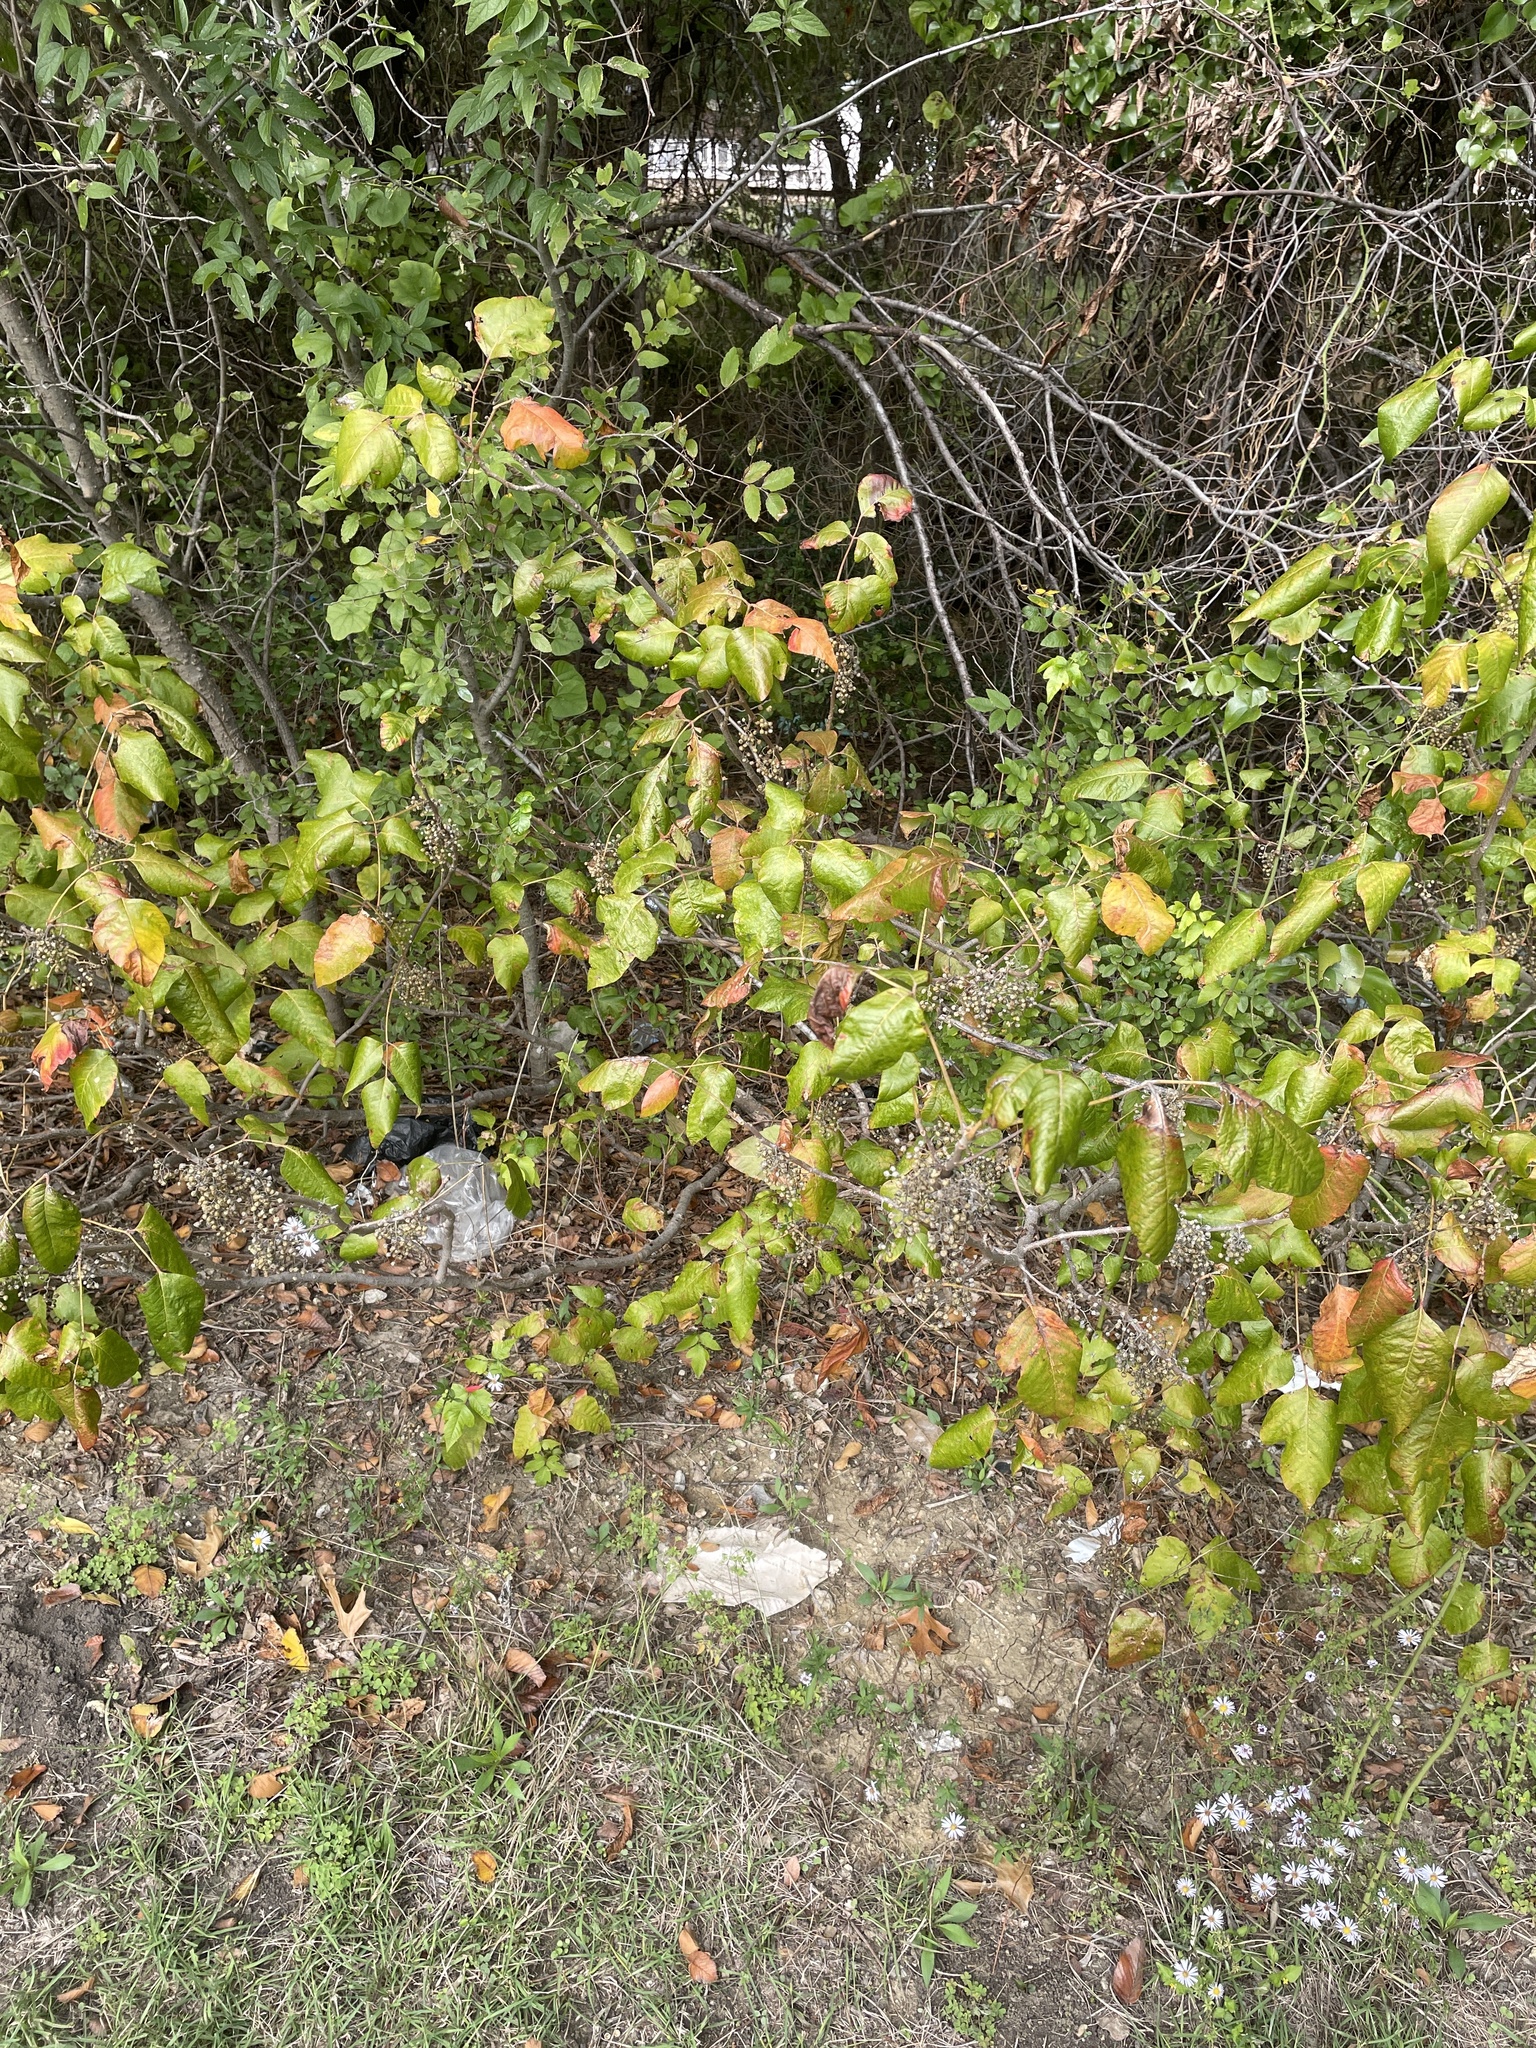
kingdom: Plantae
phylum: Tracheophyta
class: Magnoliopsida
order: Sapindales
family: Anacardiaceae
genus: Toxicodendron
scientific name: Toxicodendron radicans
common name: Poison ivy
